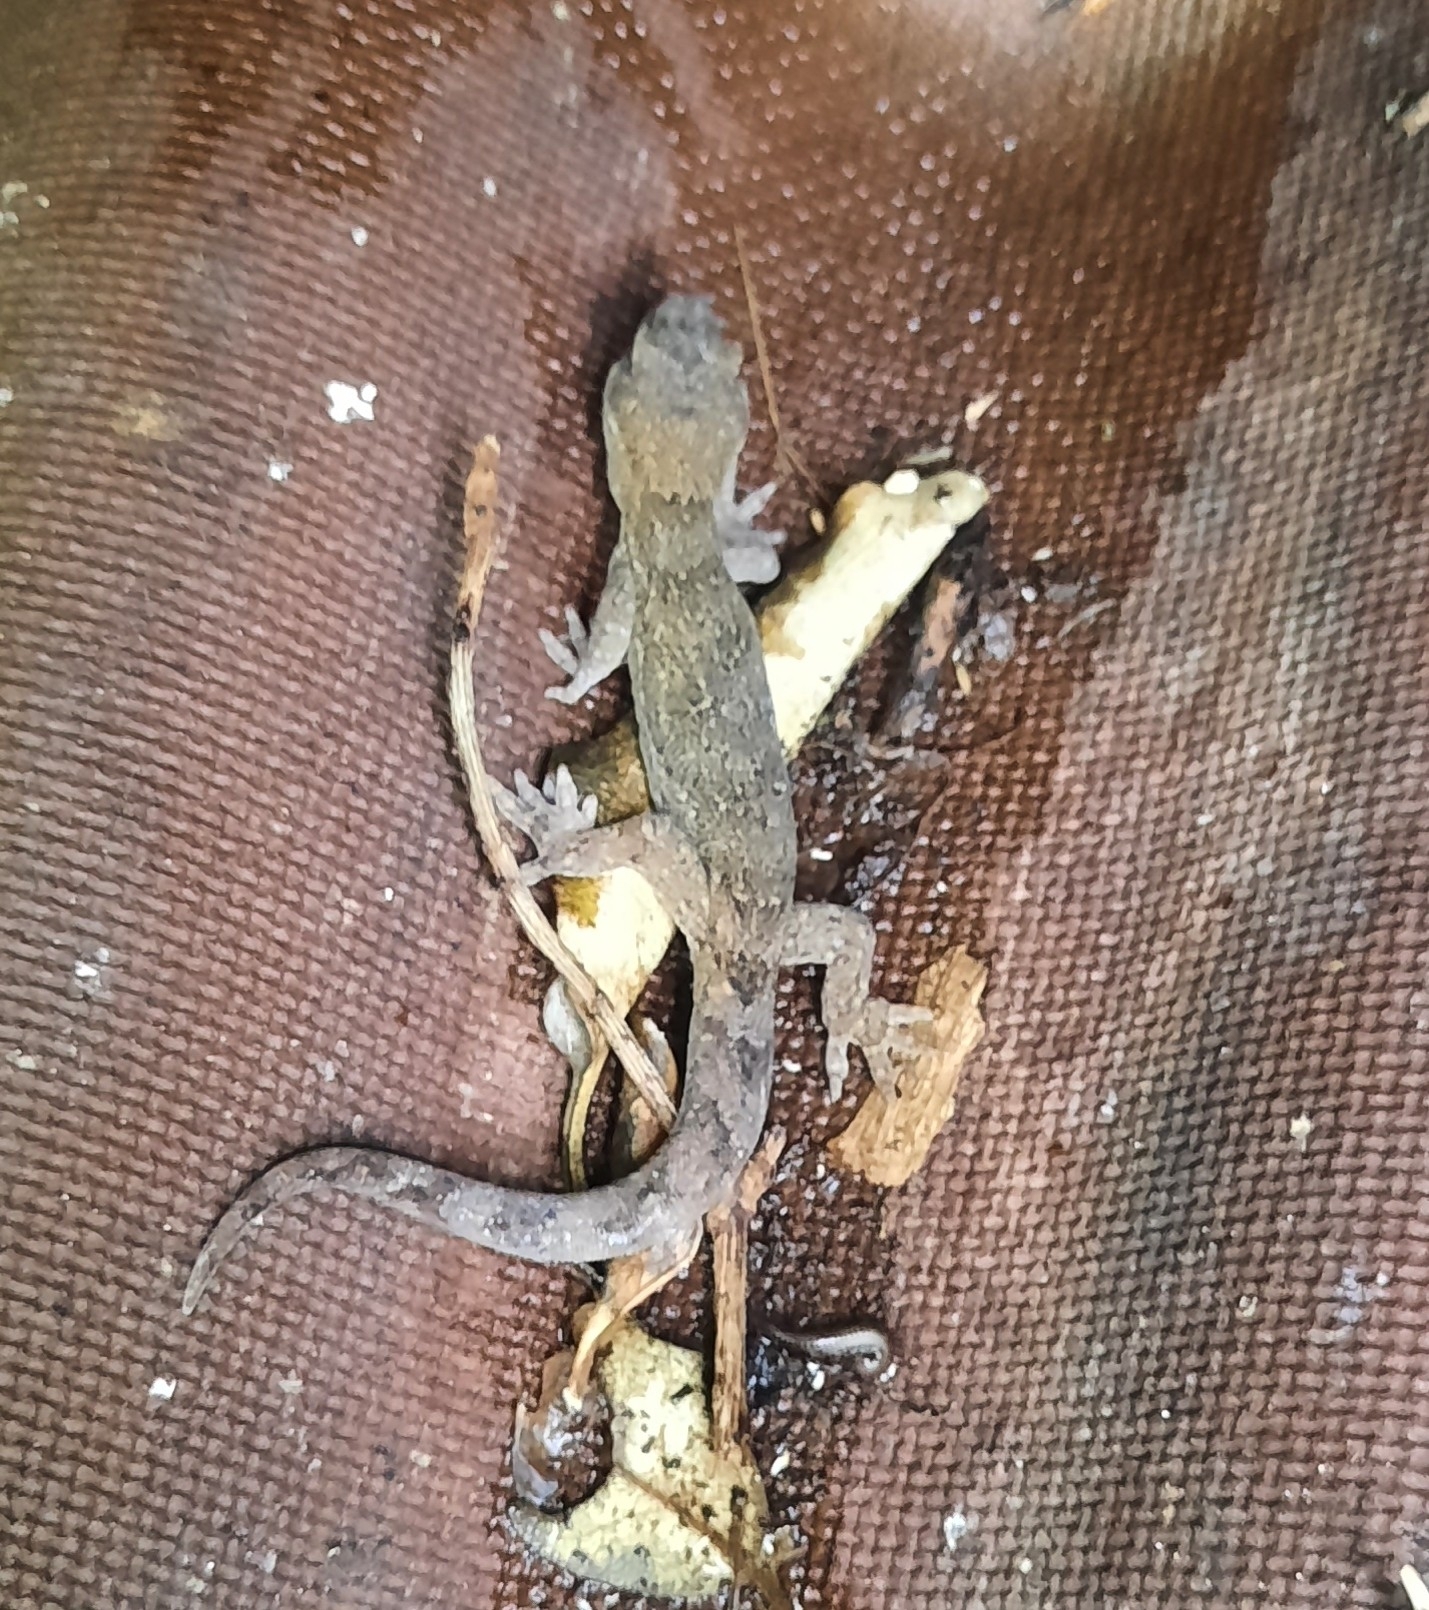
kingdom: Animalia
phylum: Chordata
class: Squamata
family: Diplodactylidae
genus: Woodworthia
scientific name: Woodworthia maculata
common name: Raukawa gecko
